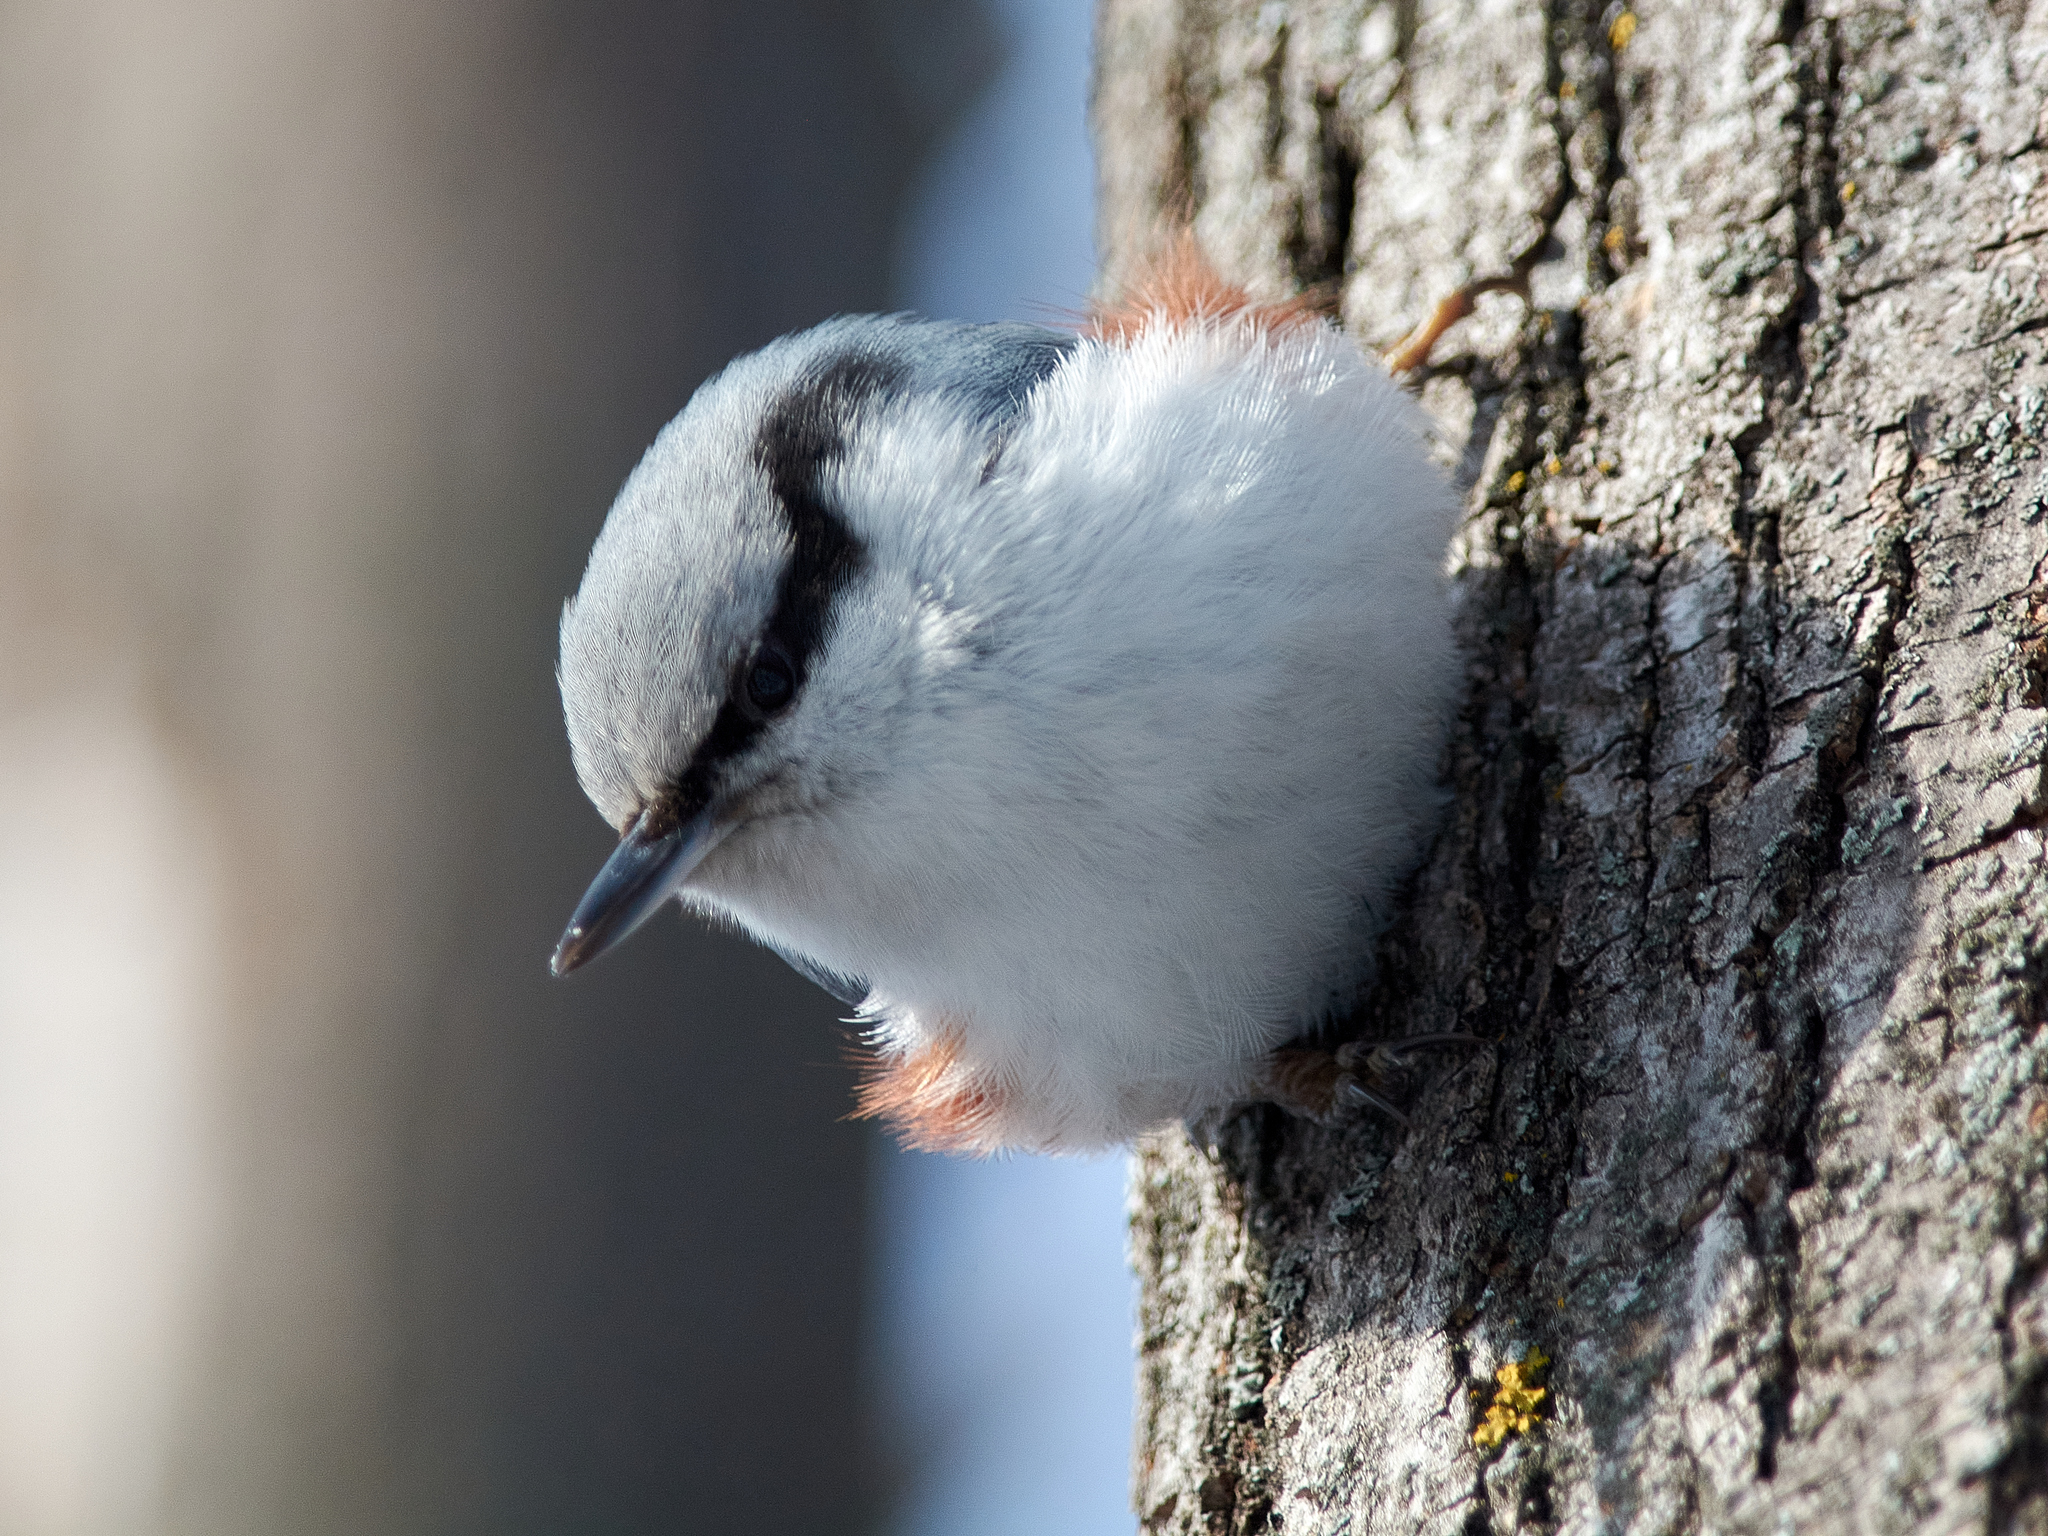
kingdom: Animalia
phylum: Chordata
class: Aves
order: Passeriformes
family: Sittidae
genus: Sitta
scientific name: Sitta europaea
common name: Eurasian nuthatch
